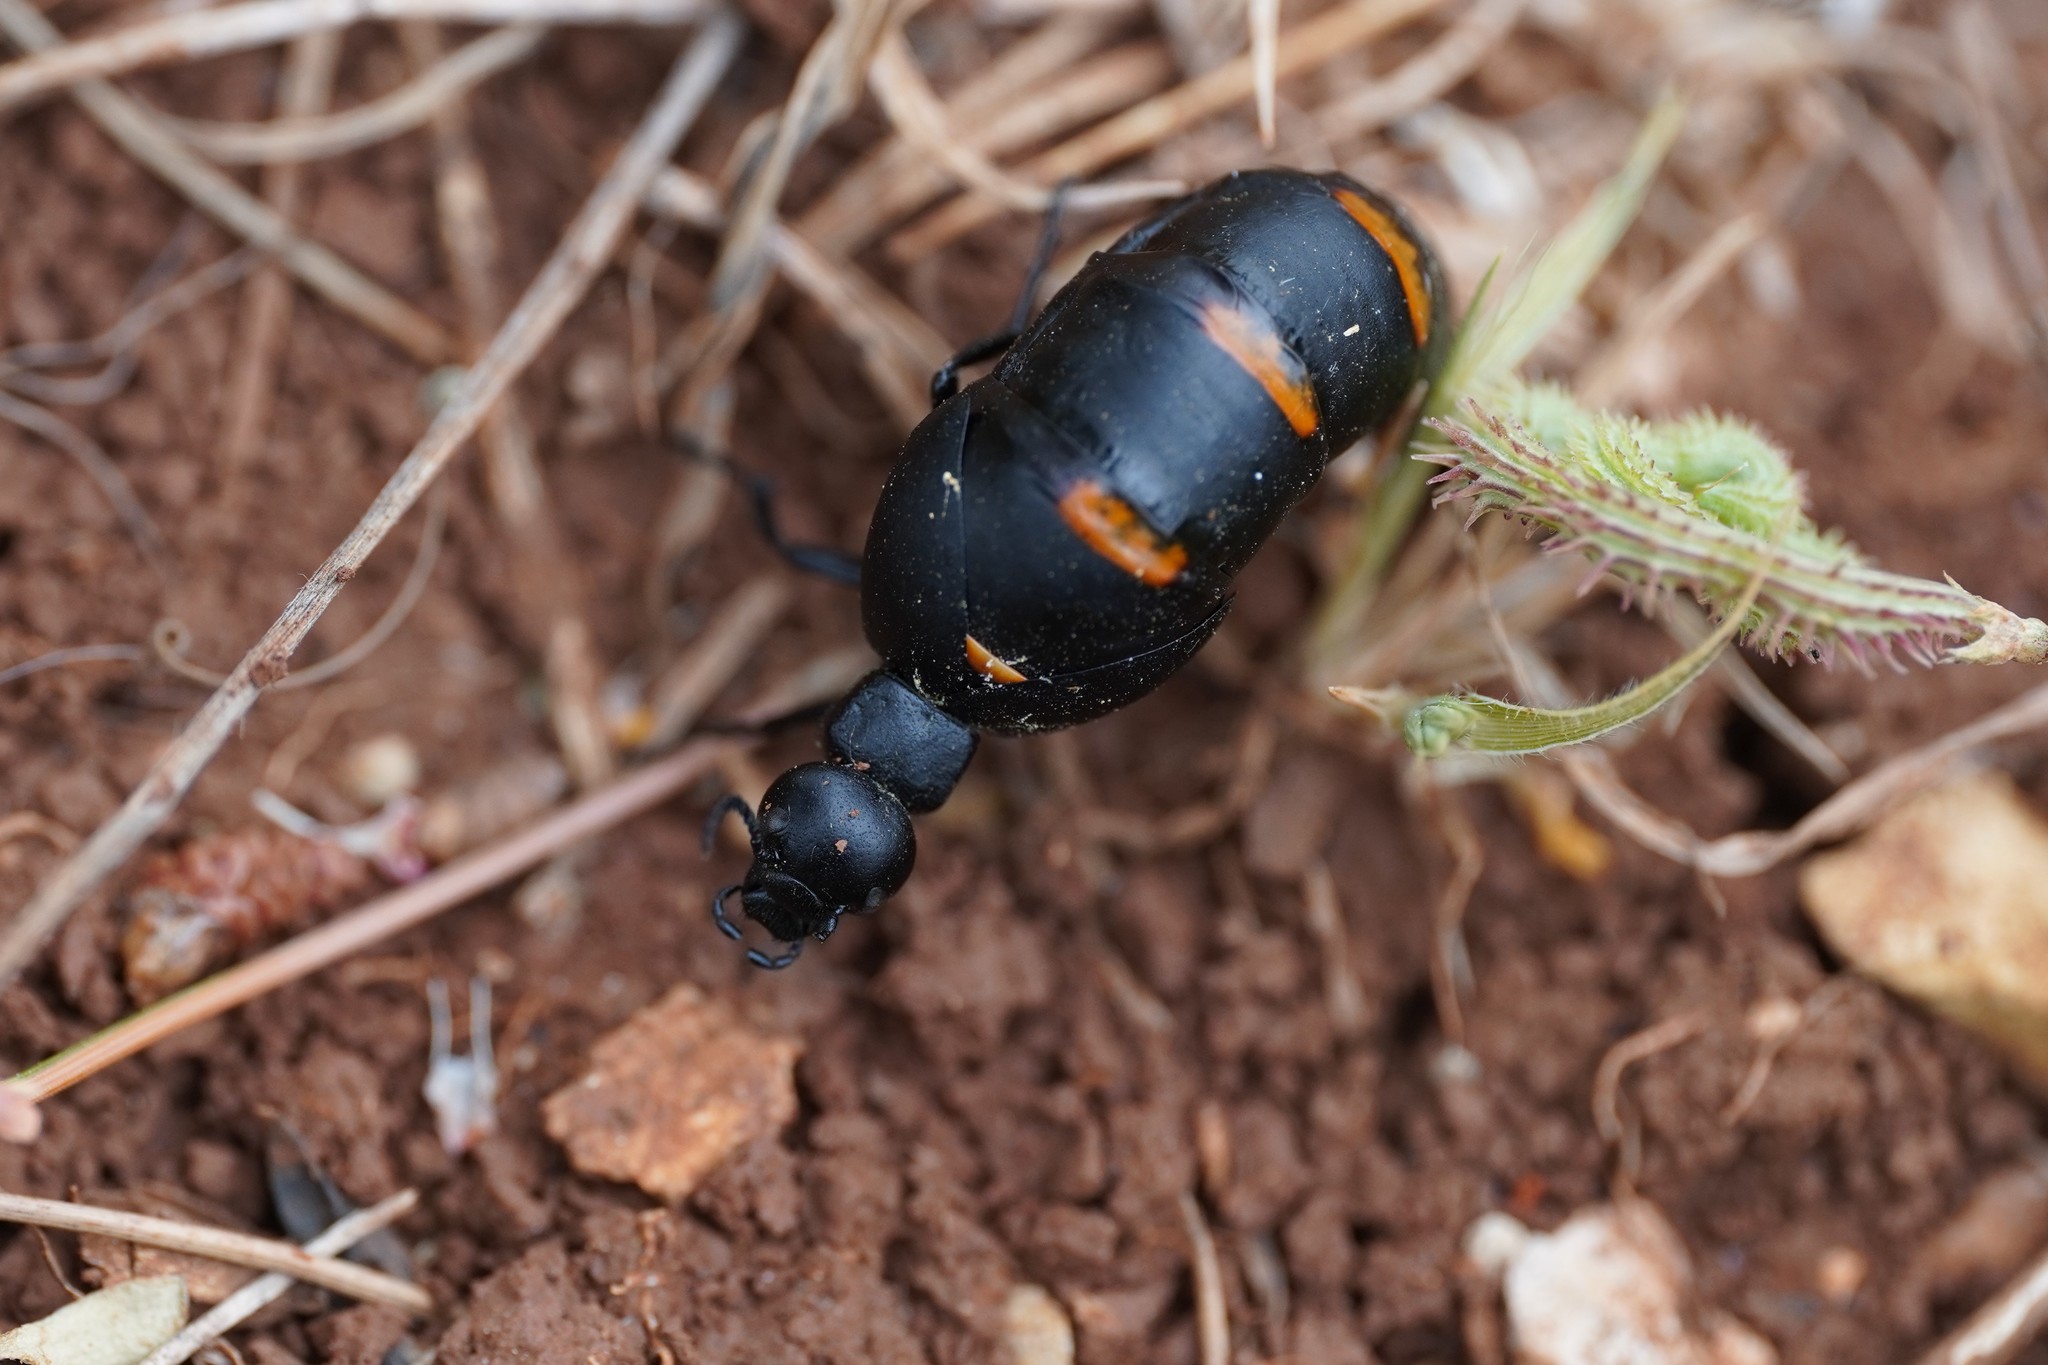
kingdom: Animalia
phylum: Arthropoda
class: Insecta
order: Coleoptera
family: Meloidae
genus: Berberomeloe
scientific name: Berberomeloe payoyo
